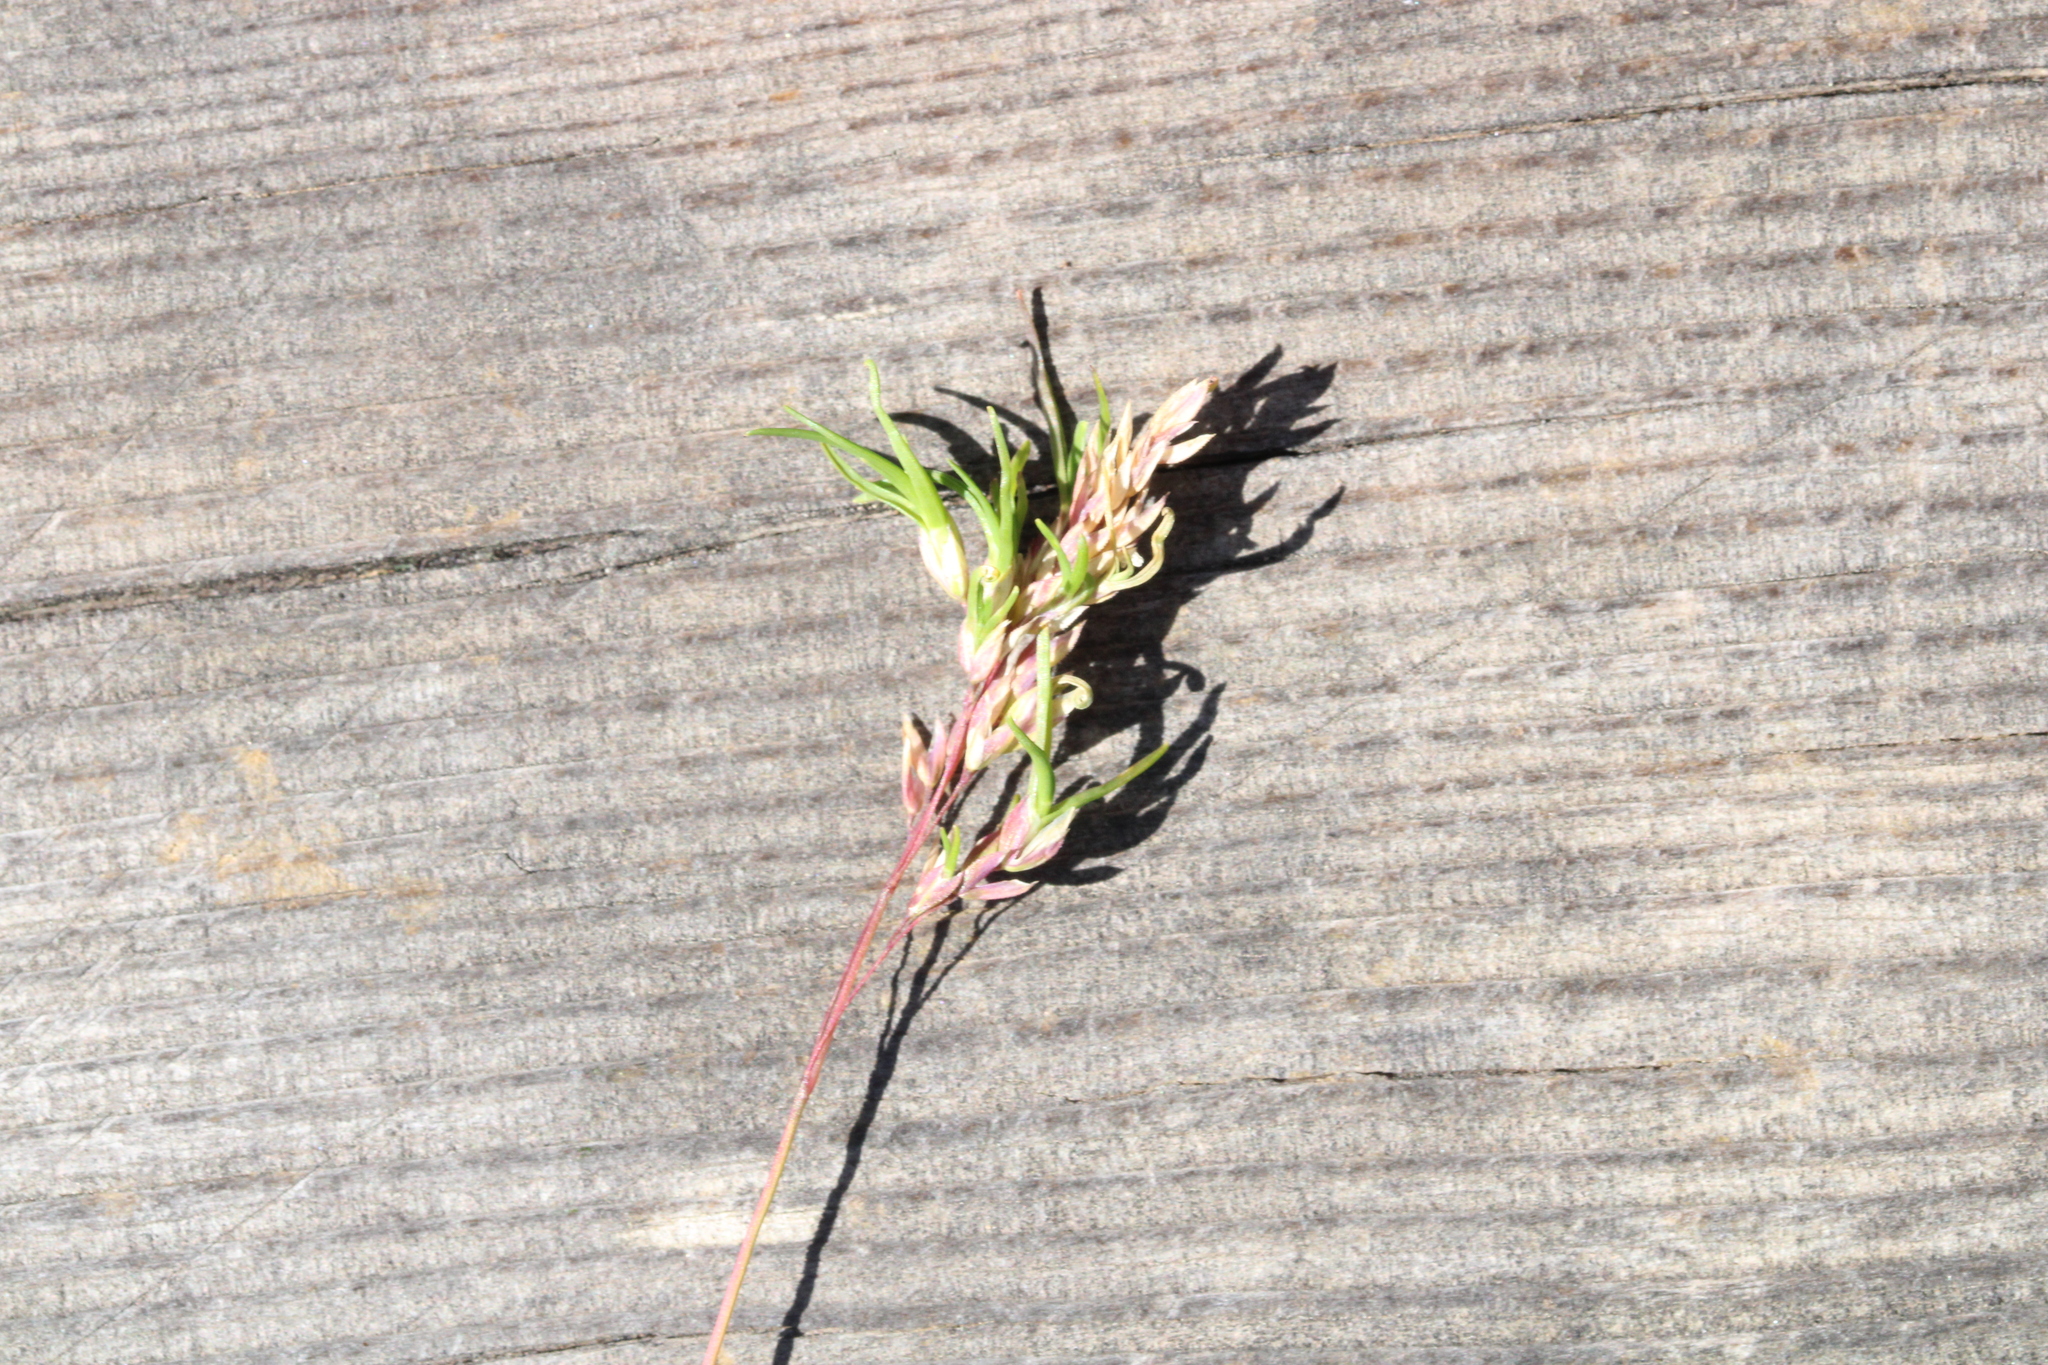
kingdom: Plantae
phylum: Tracheophyta
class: Liliopsida
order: Poales
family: Poaceae
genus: Poa
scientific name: Poa alpina
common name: Alpine bluegrass
